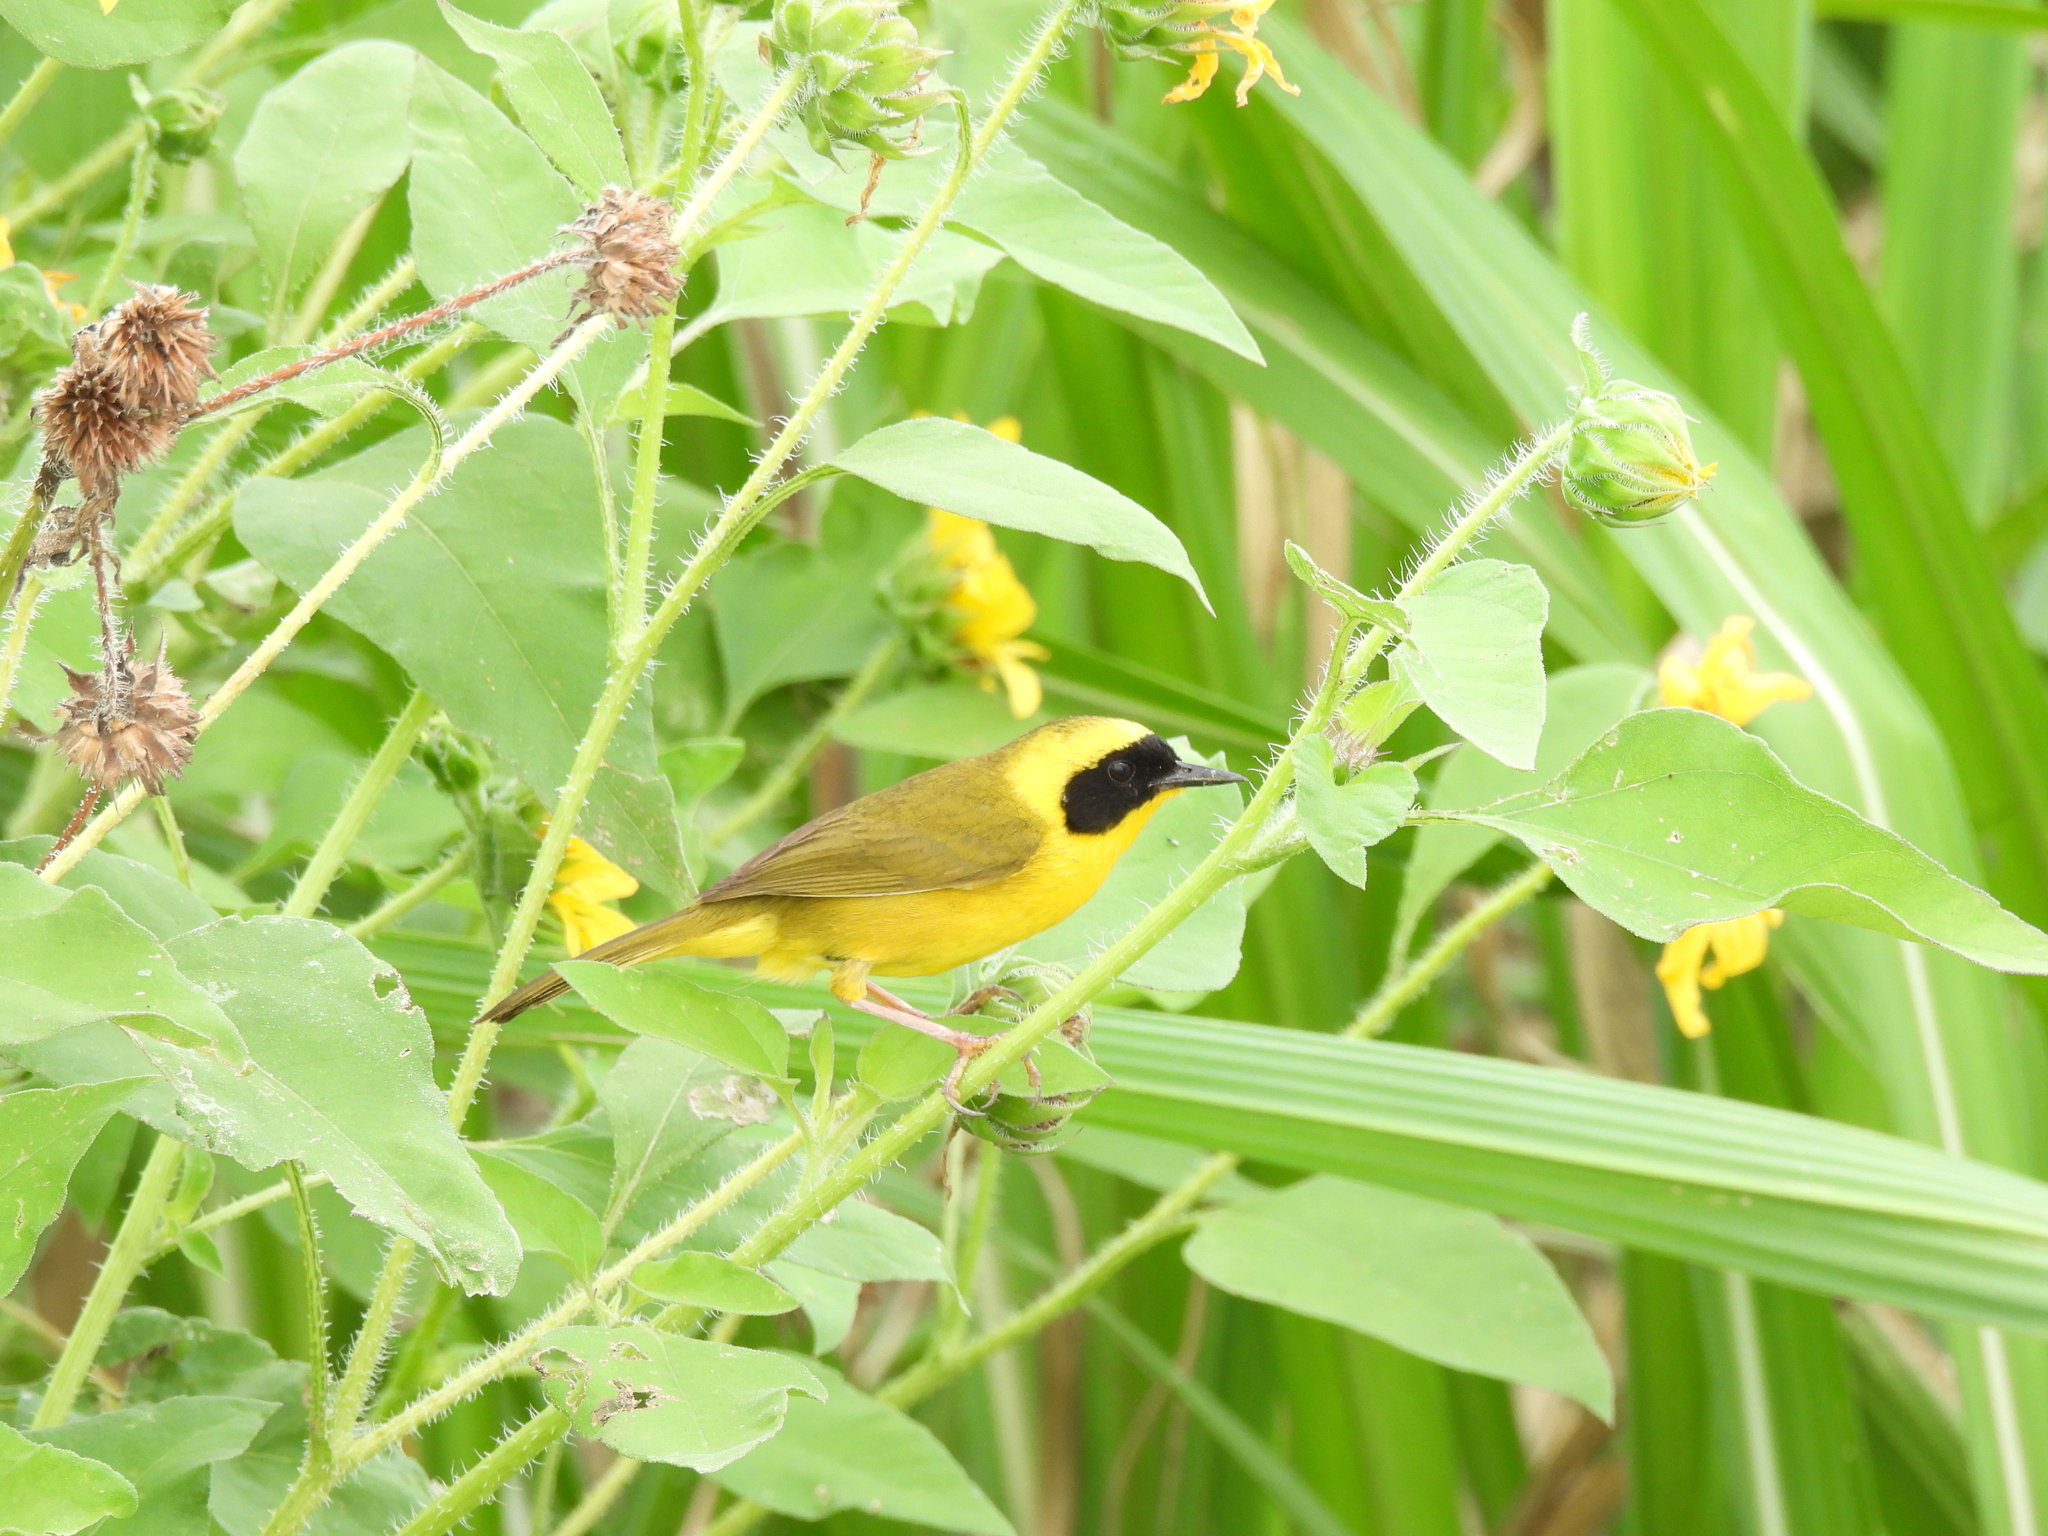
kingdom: Animalia
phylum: Chordata
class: Aves
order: Passeriformes
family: Parulidae
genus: Geothlypis
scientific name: Geothlypis flavovelata
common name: Altamira yellowthroat
